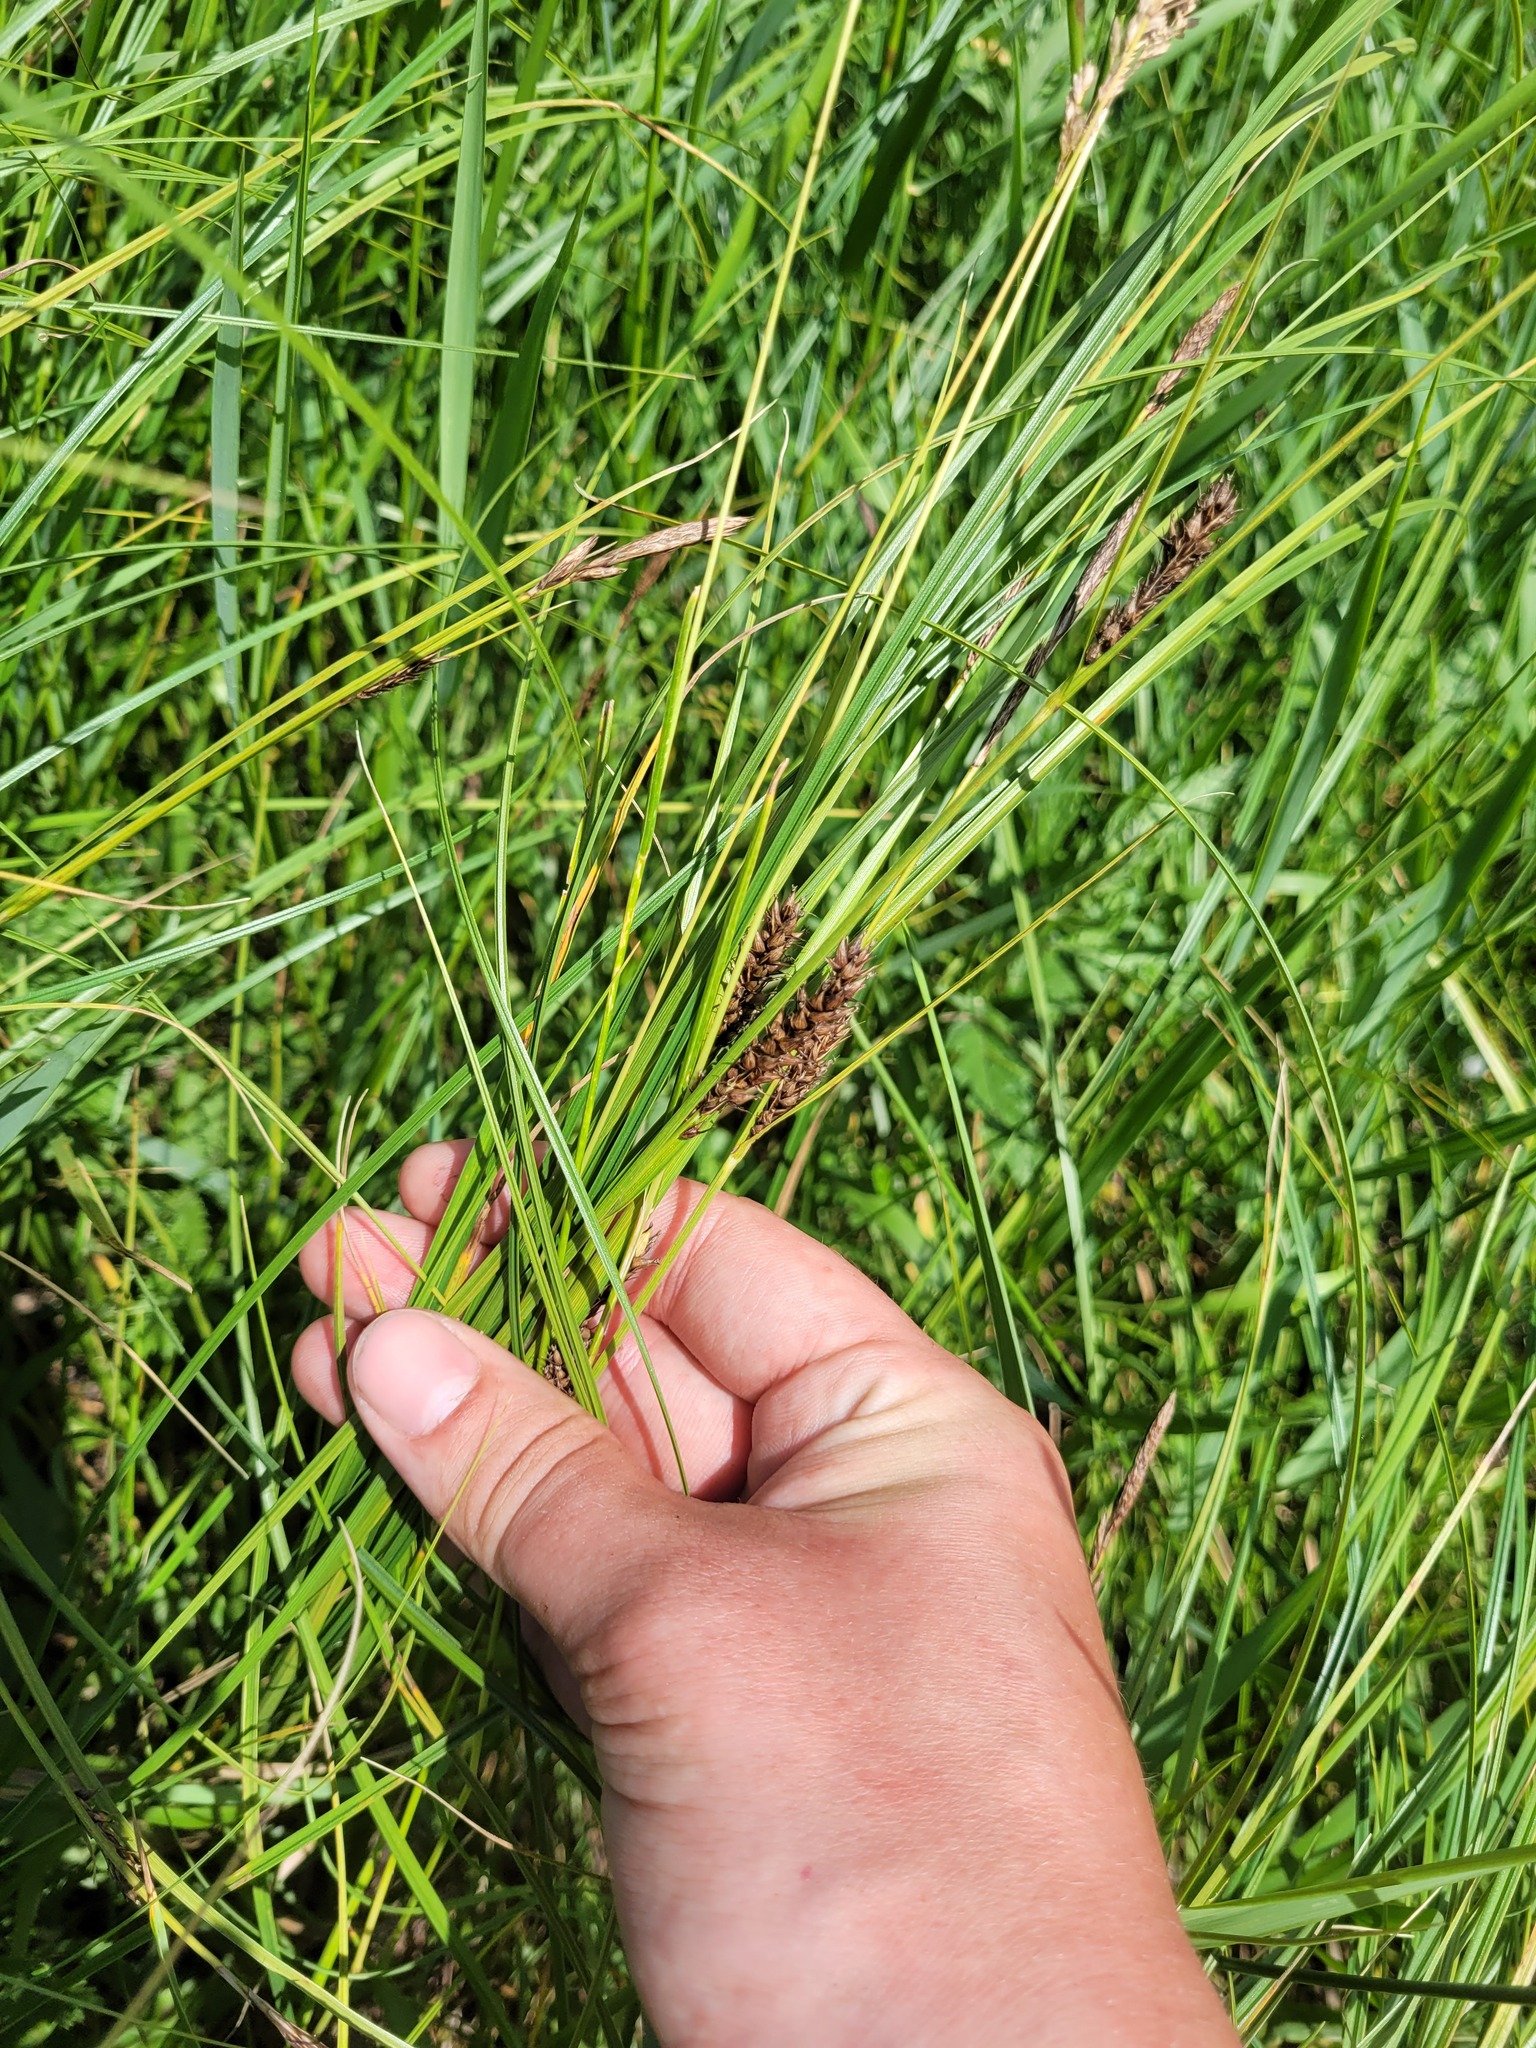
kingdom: Plantae
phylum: Tracheophyta
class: Liliopsida
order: Poales
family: Cyperaceae
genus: Carex
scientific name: Carex melanostachya
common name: Black-spiked sedge
